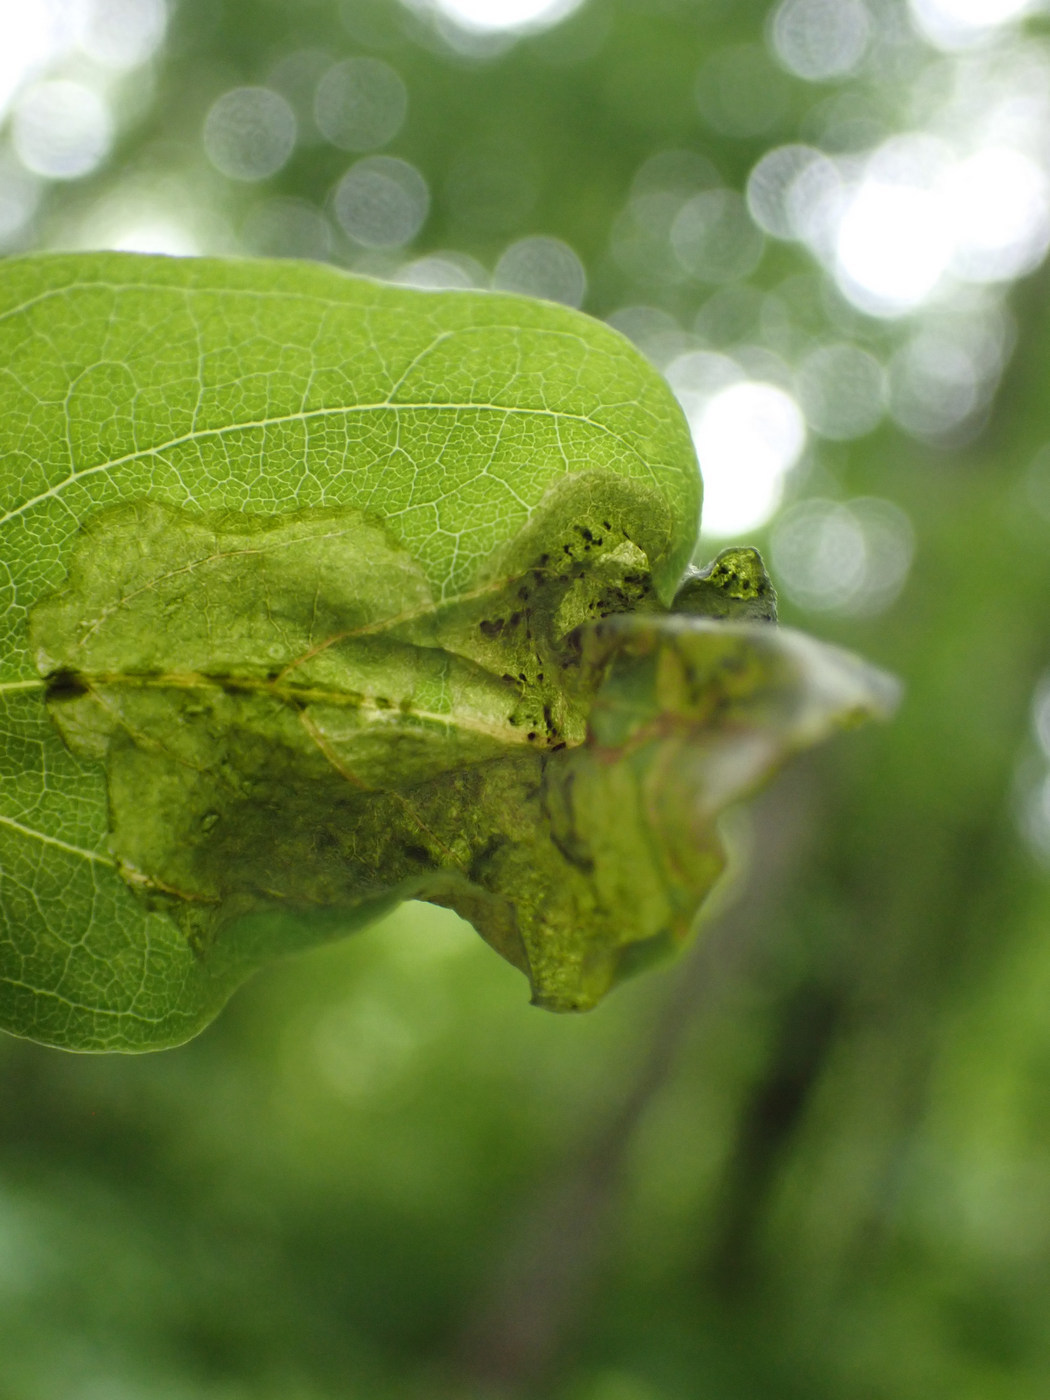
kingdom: Animalia
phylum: Arthropoda
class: Insecta
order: Diptera
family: Agromyzidae
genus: Agromyza
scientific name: Agromyza soka
